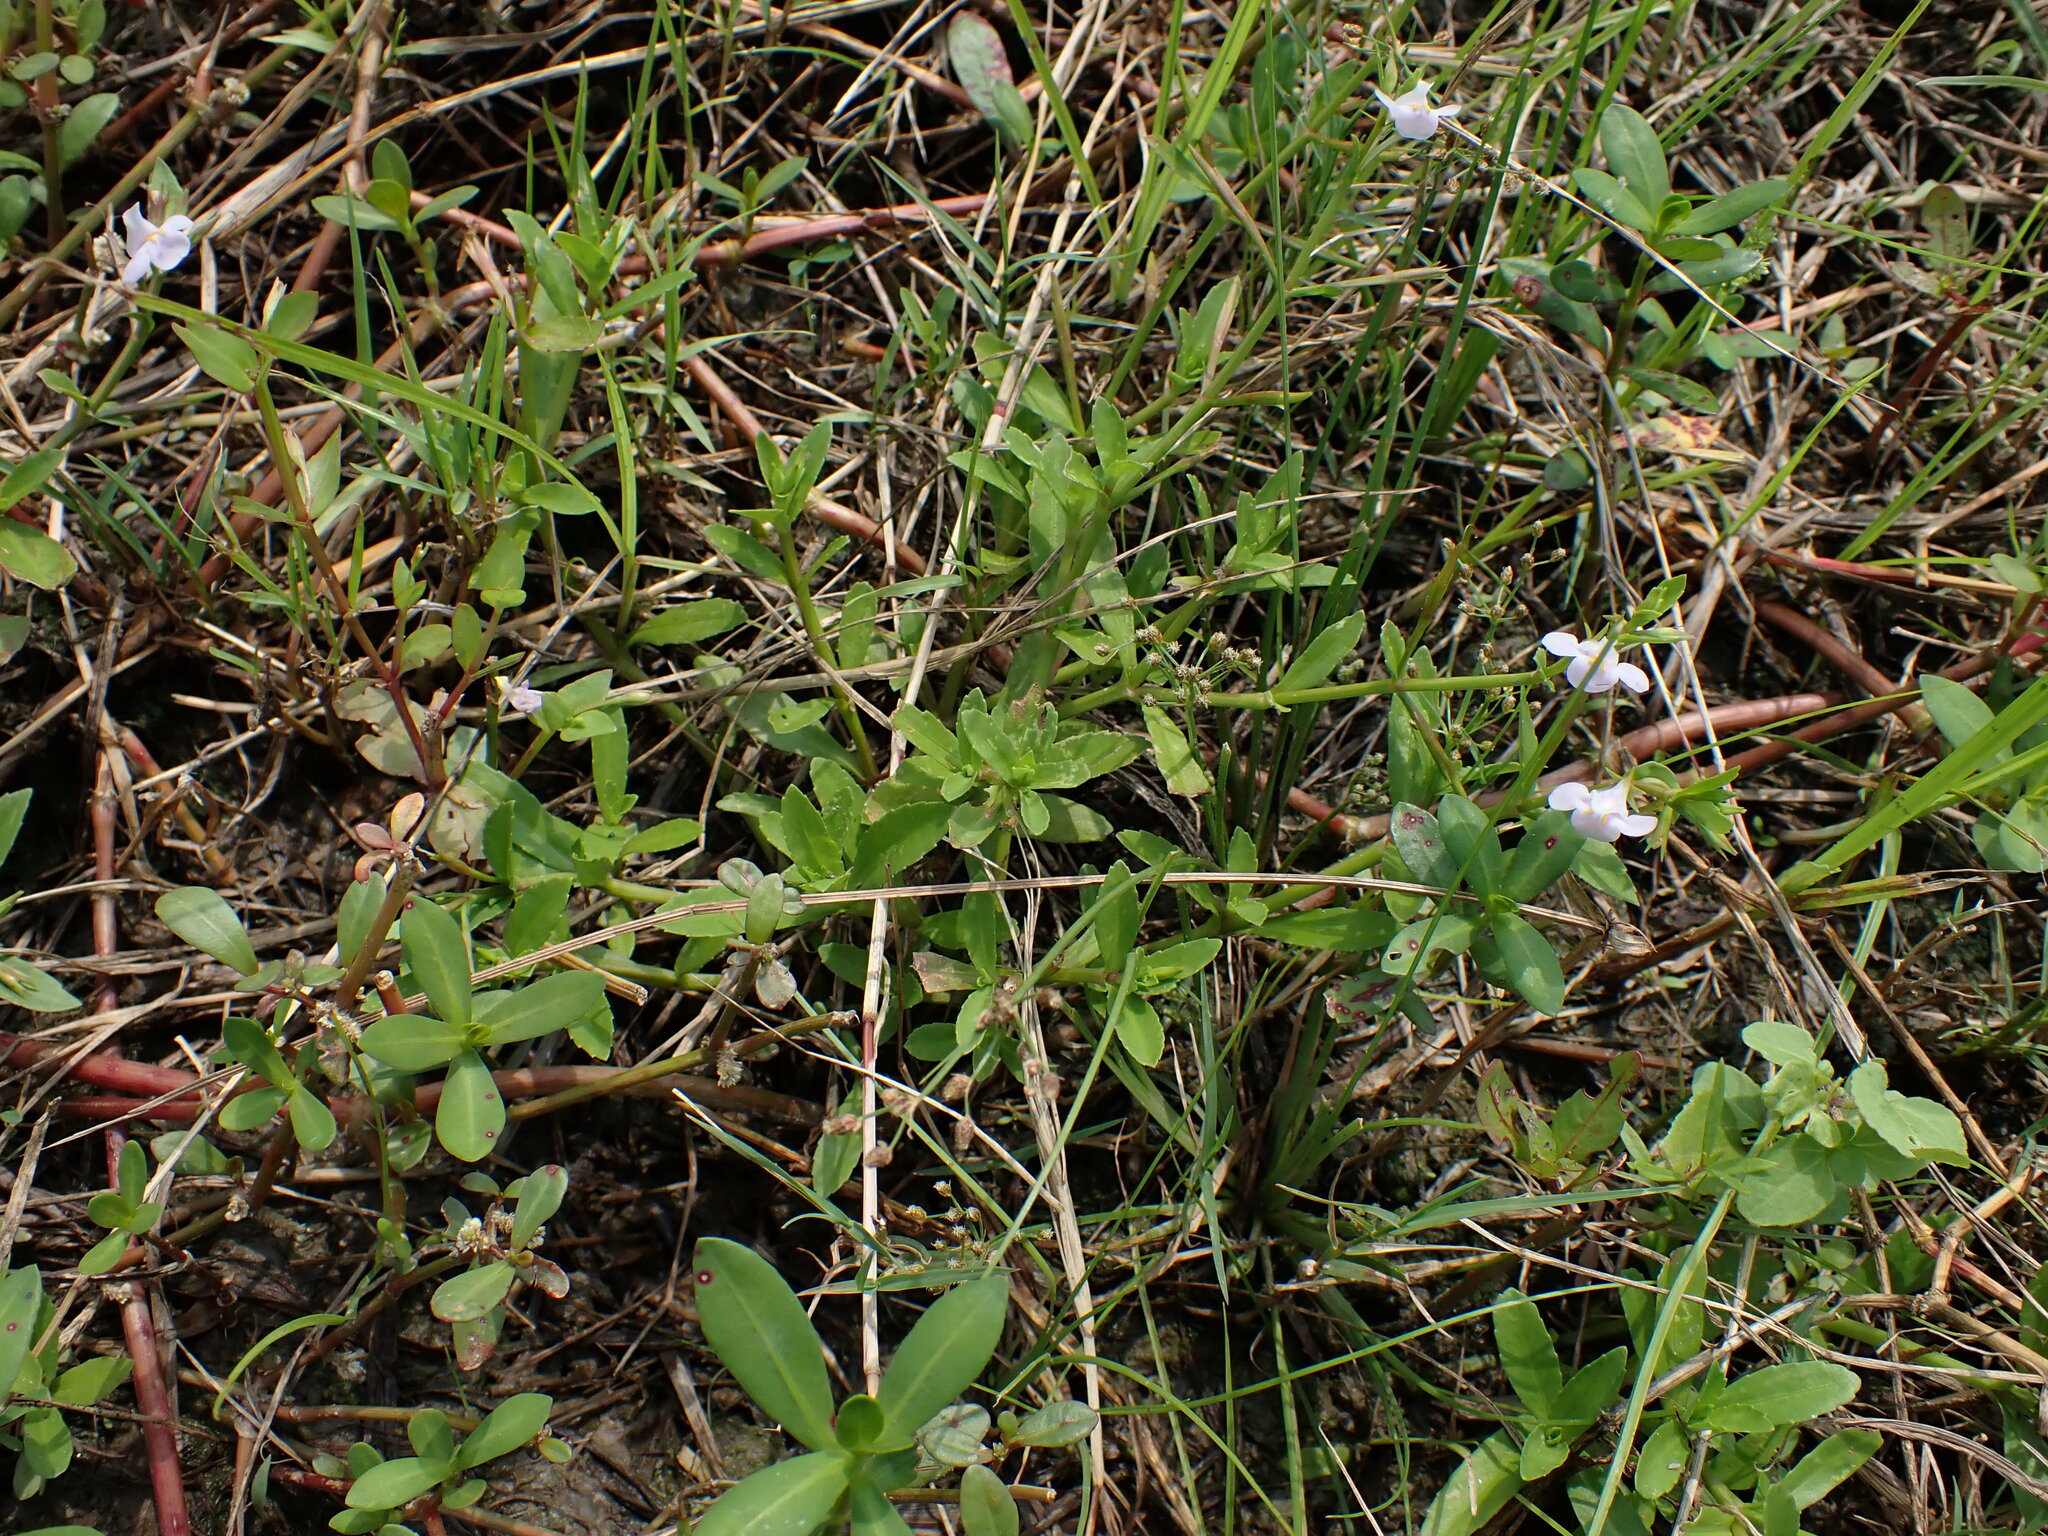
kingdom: Plantae
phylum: Tracheophyta
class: Magnoliopsida
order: Lamiales
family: Linderniaceae
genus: Bonnaya
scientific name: Bonnaya antipoda
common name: Sparrow false pimpernel
